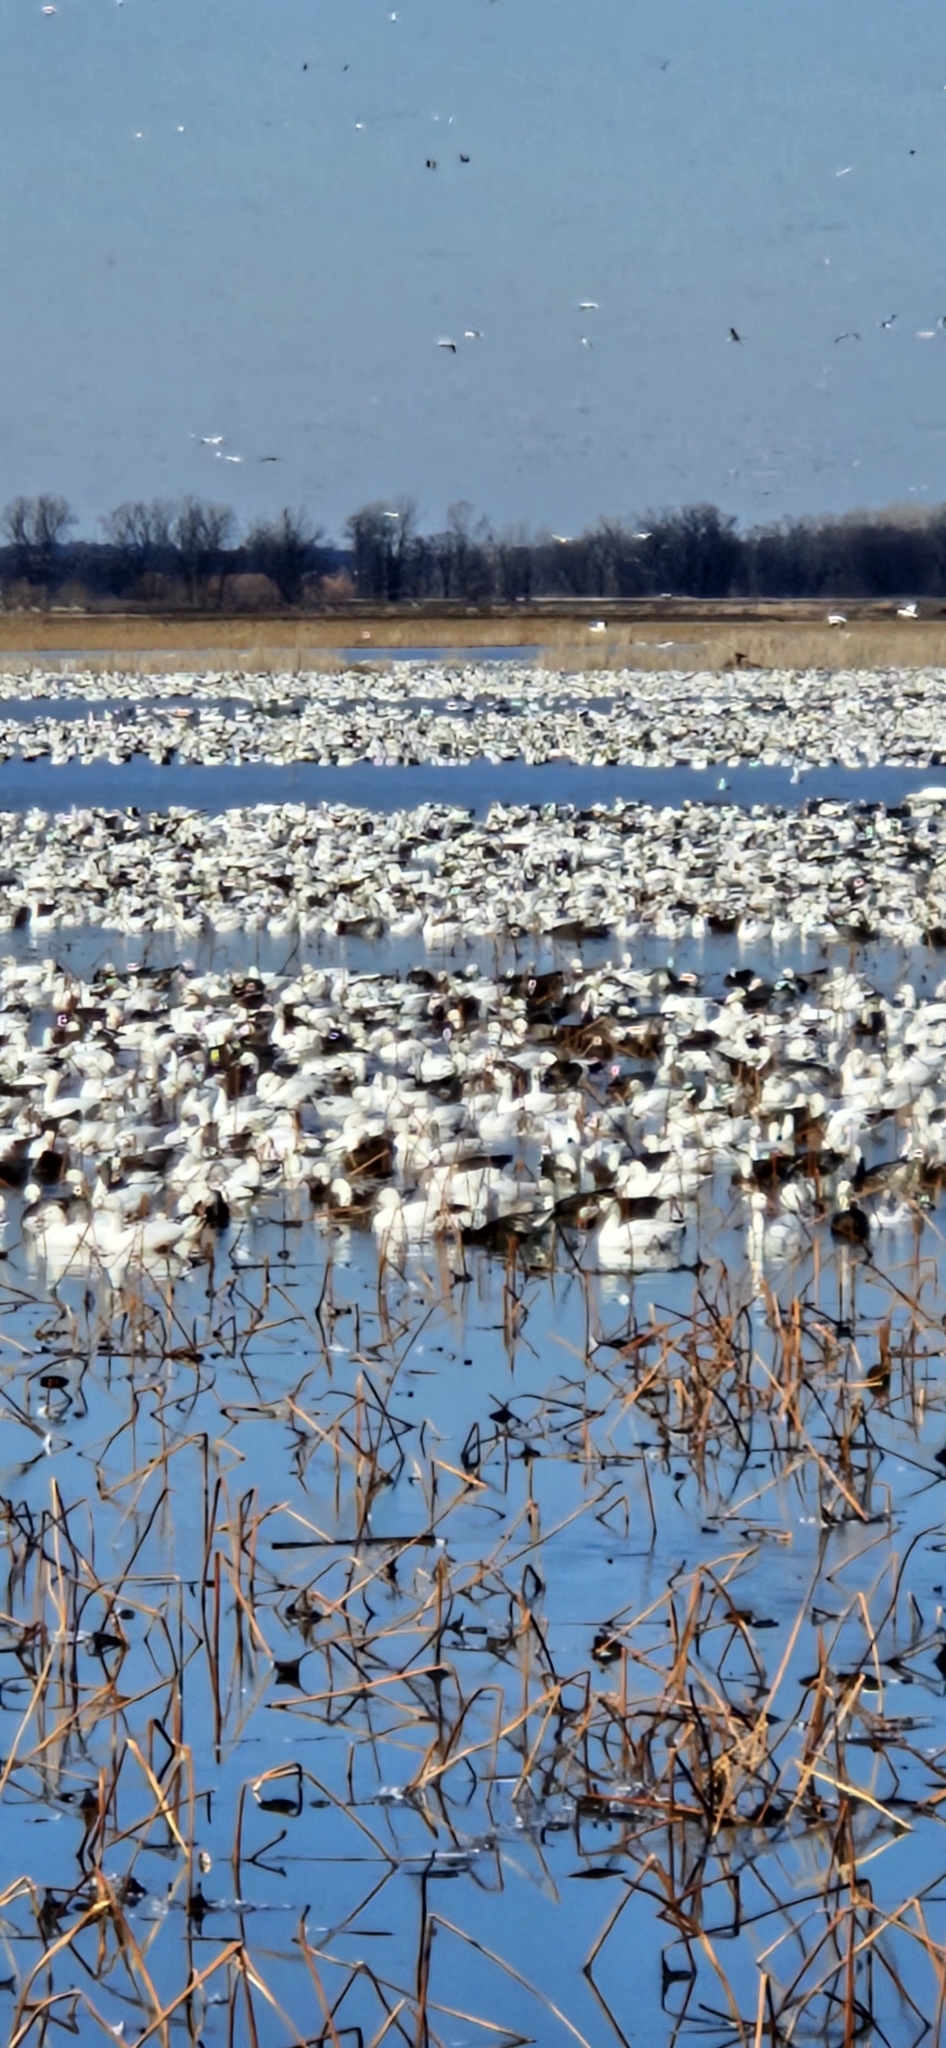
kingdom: Animalia
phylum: Chordata
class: Aves
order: Anseriformes
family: Anatidae
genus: Anser
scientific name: Anser caerulescens
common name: Snow goose
